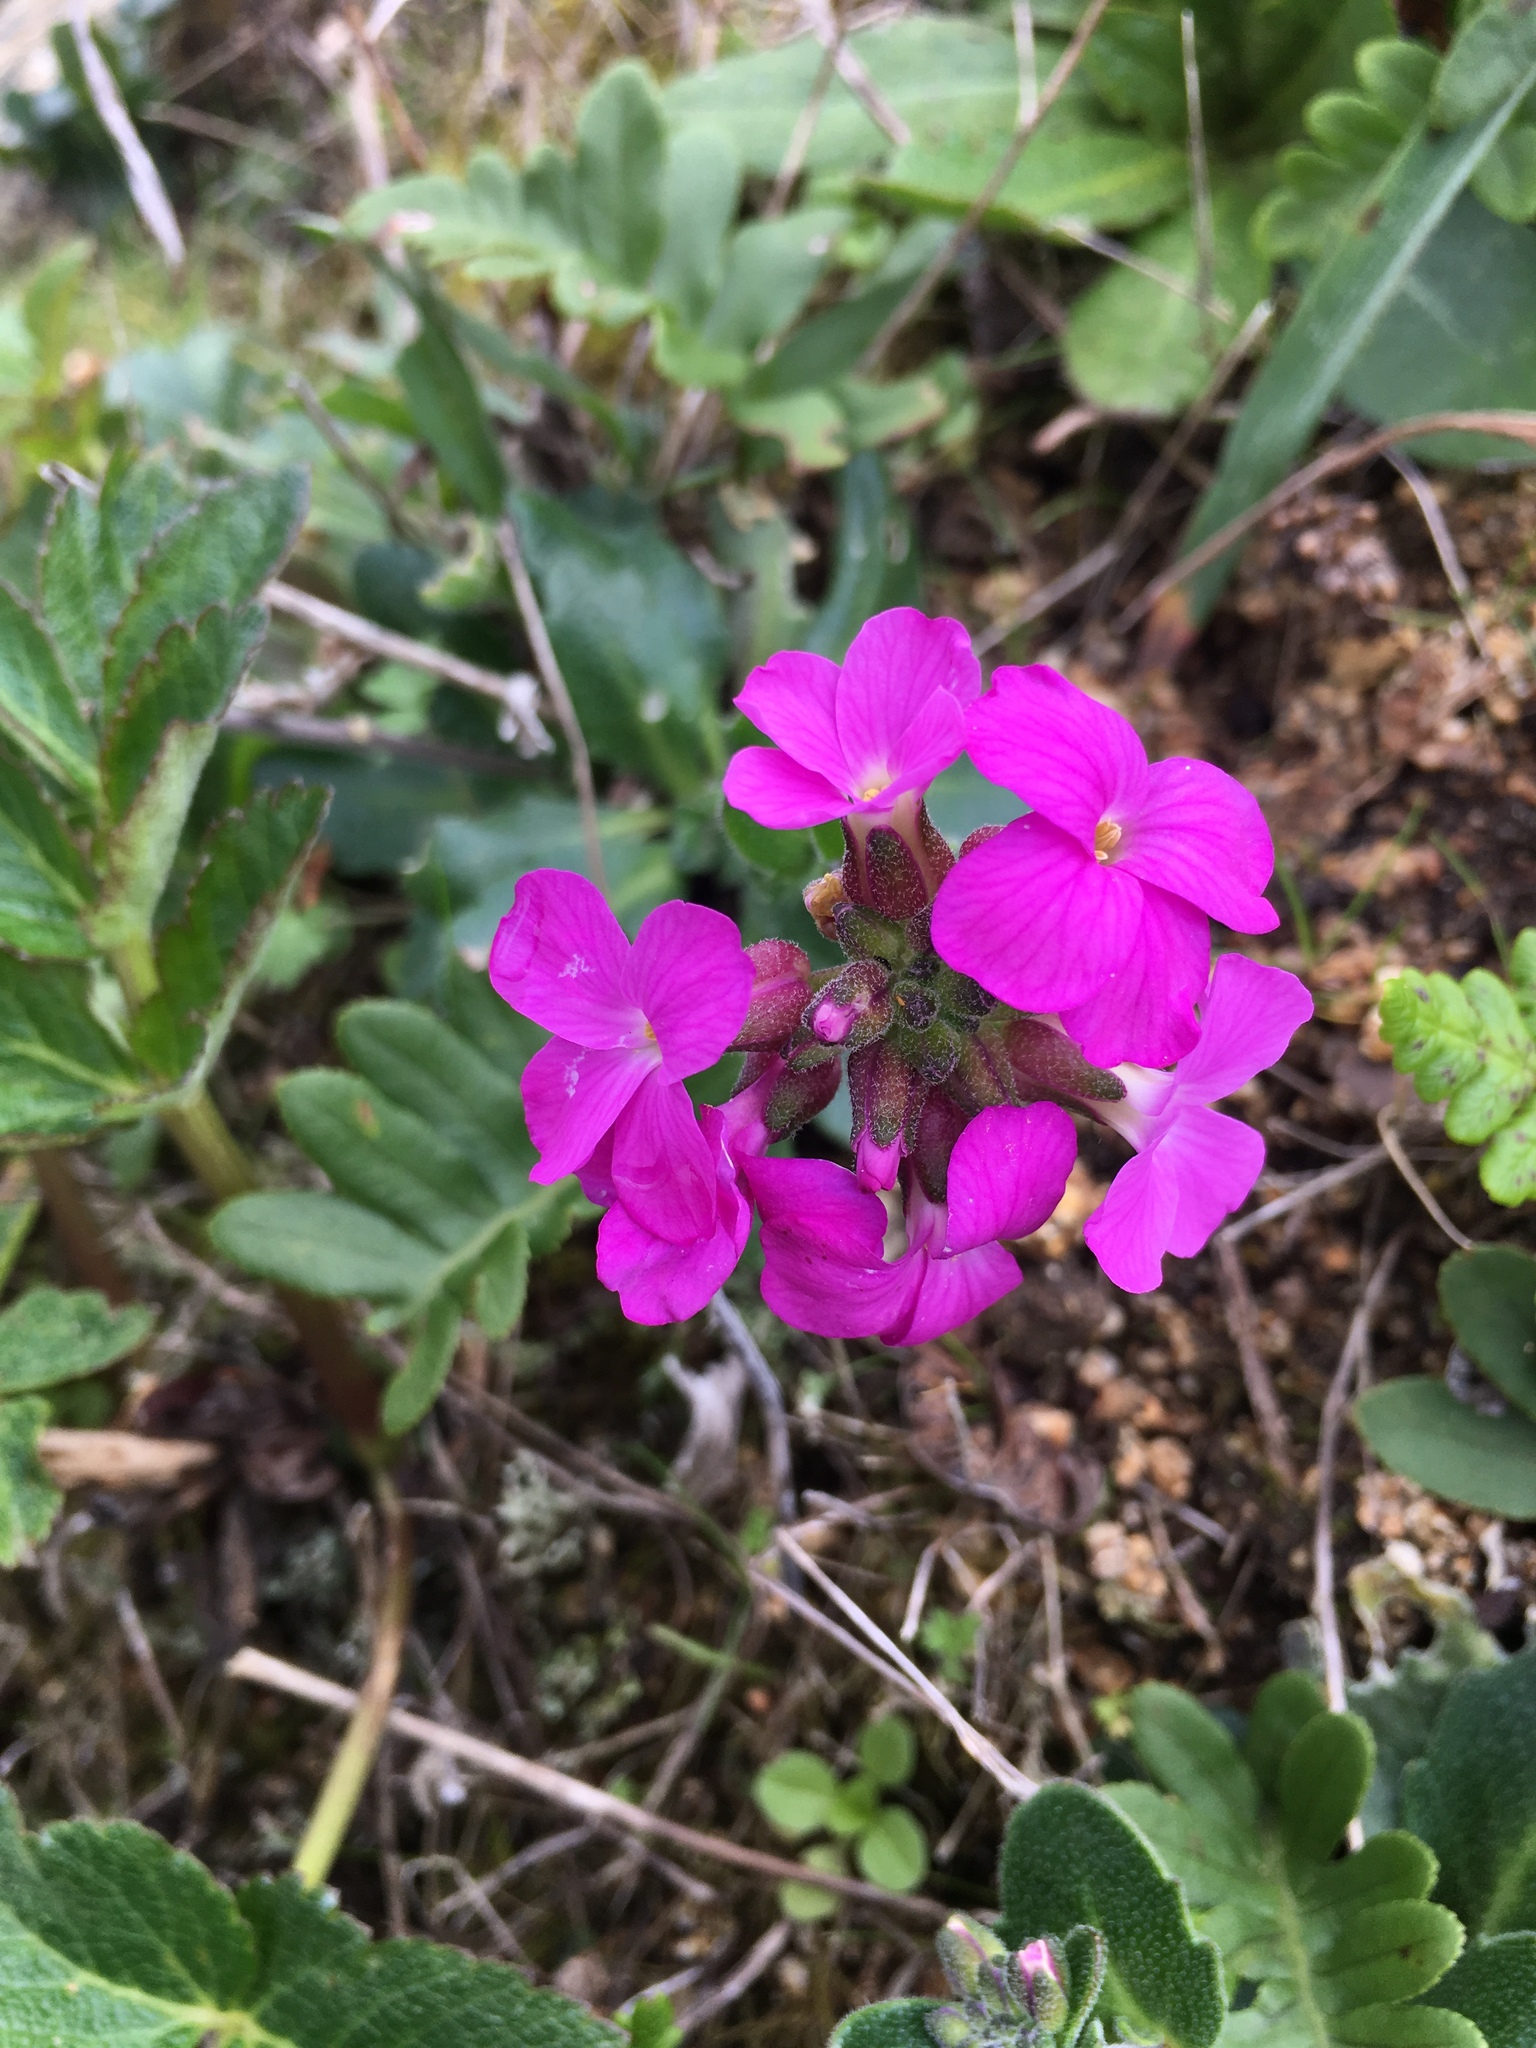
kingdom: Plantae
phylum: Tracheophyta
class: Magnoliopsida
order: Brassicales
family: Brassicaceae
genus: Arabis
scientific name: Arabis blepharophylla
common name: Rose rockcress
